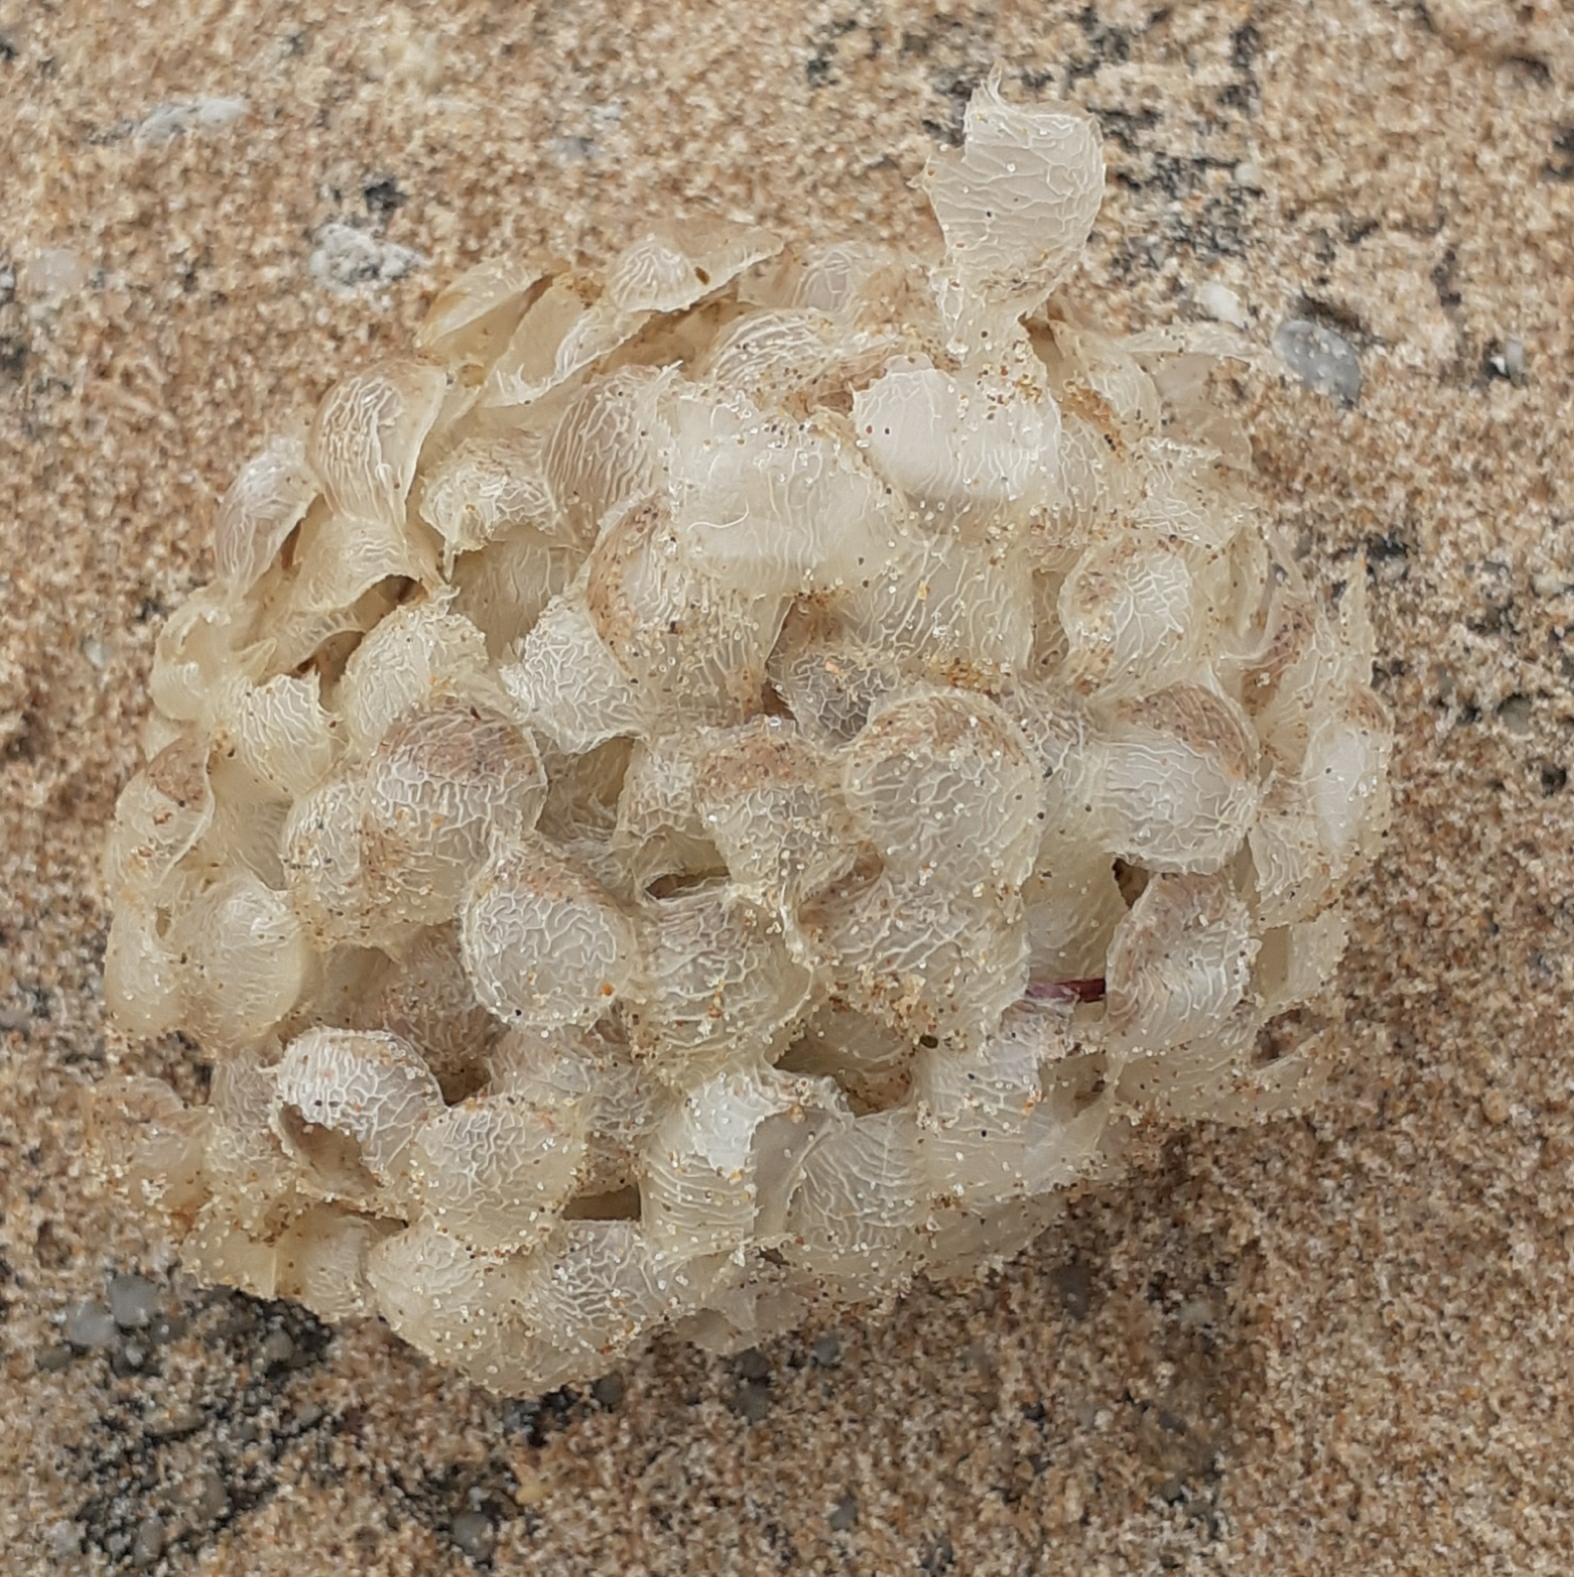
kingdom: Animalia
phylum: Mollusca
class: Gastropoda
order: Neogastropoda
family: Buccinidae
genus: Buccinum
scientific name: Buccinum undatum
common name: Common whelk
